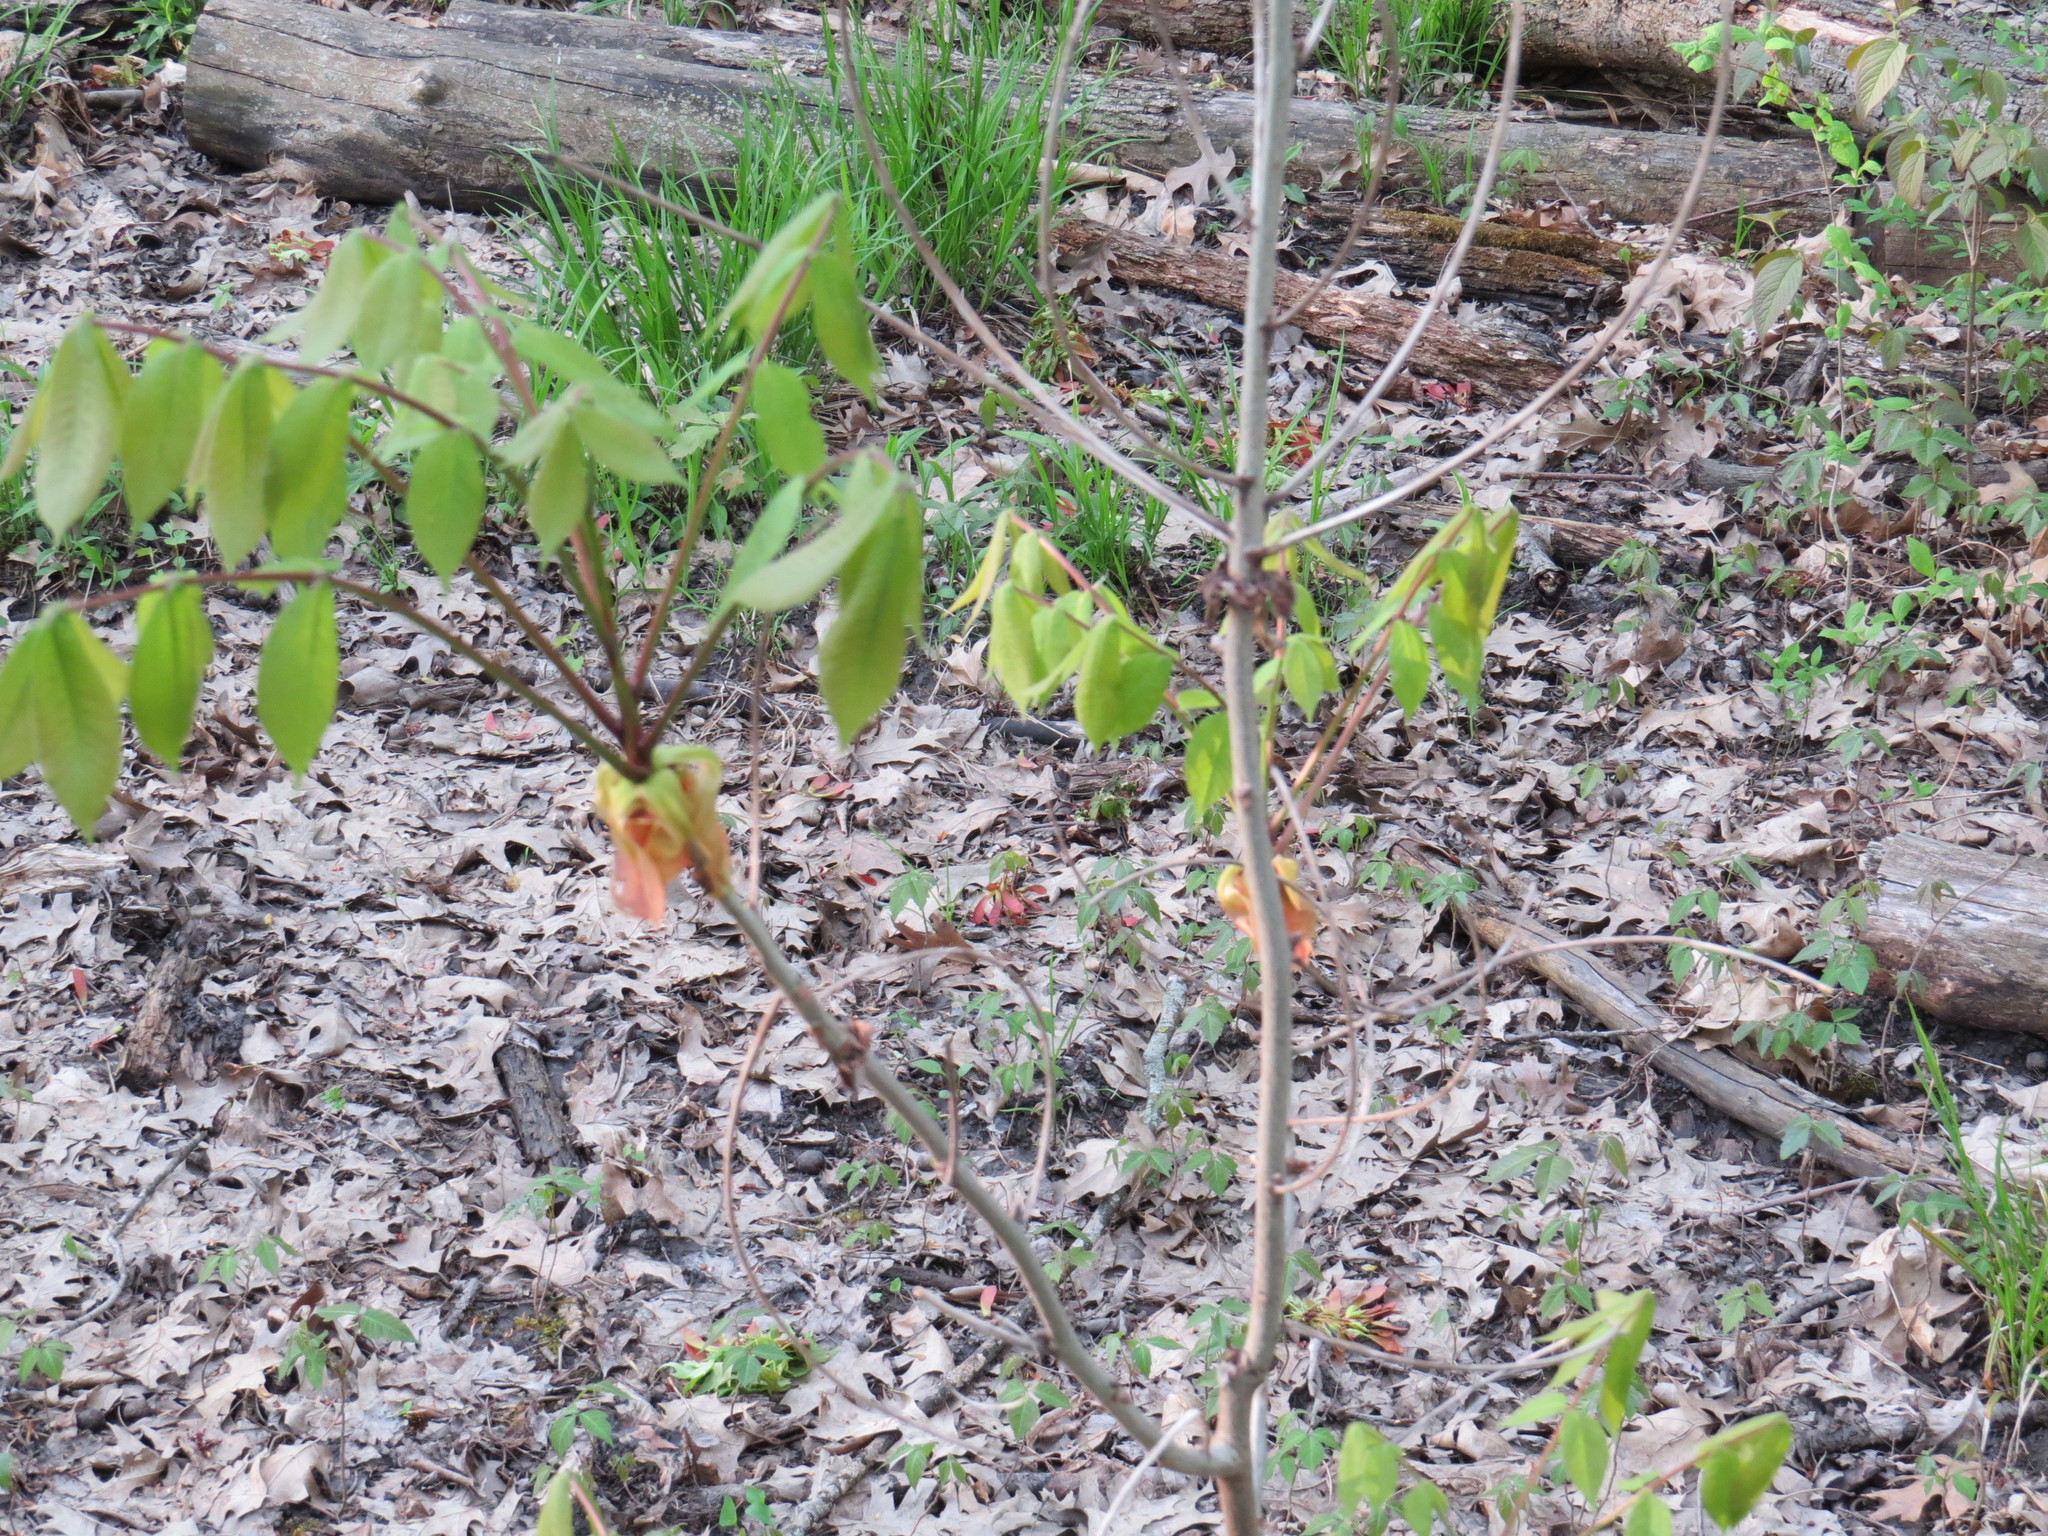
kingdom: Plantae
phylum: Tracheophyta
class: Magnoliopsida
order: Fagales
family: Juglandaceae
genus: Carya
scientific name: Carya laciniosa
